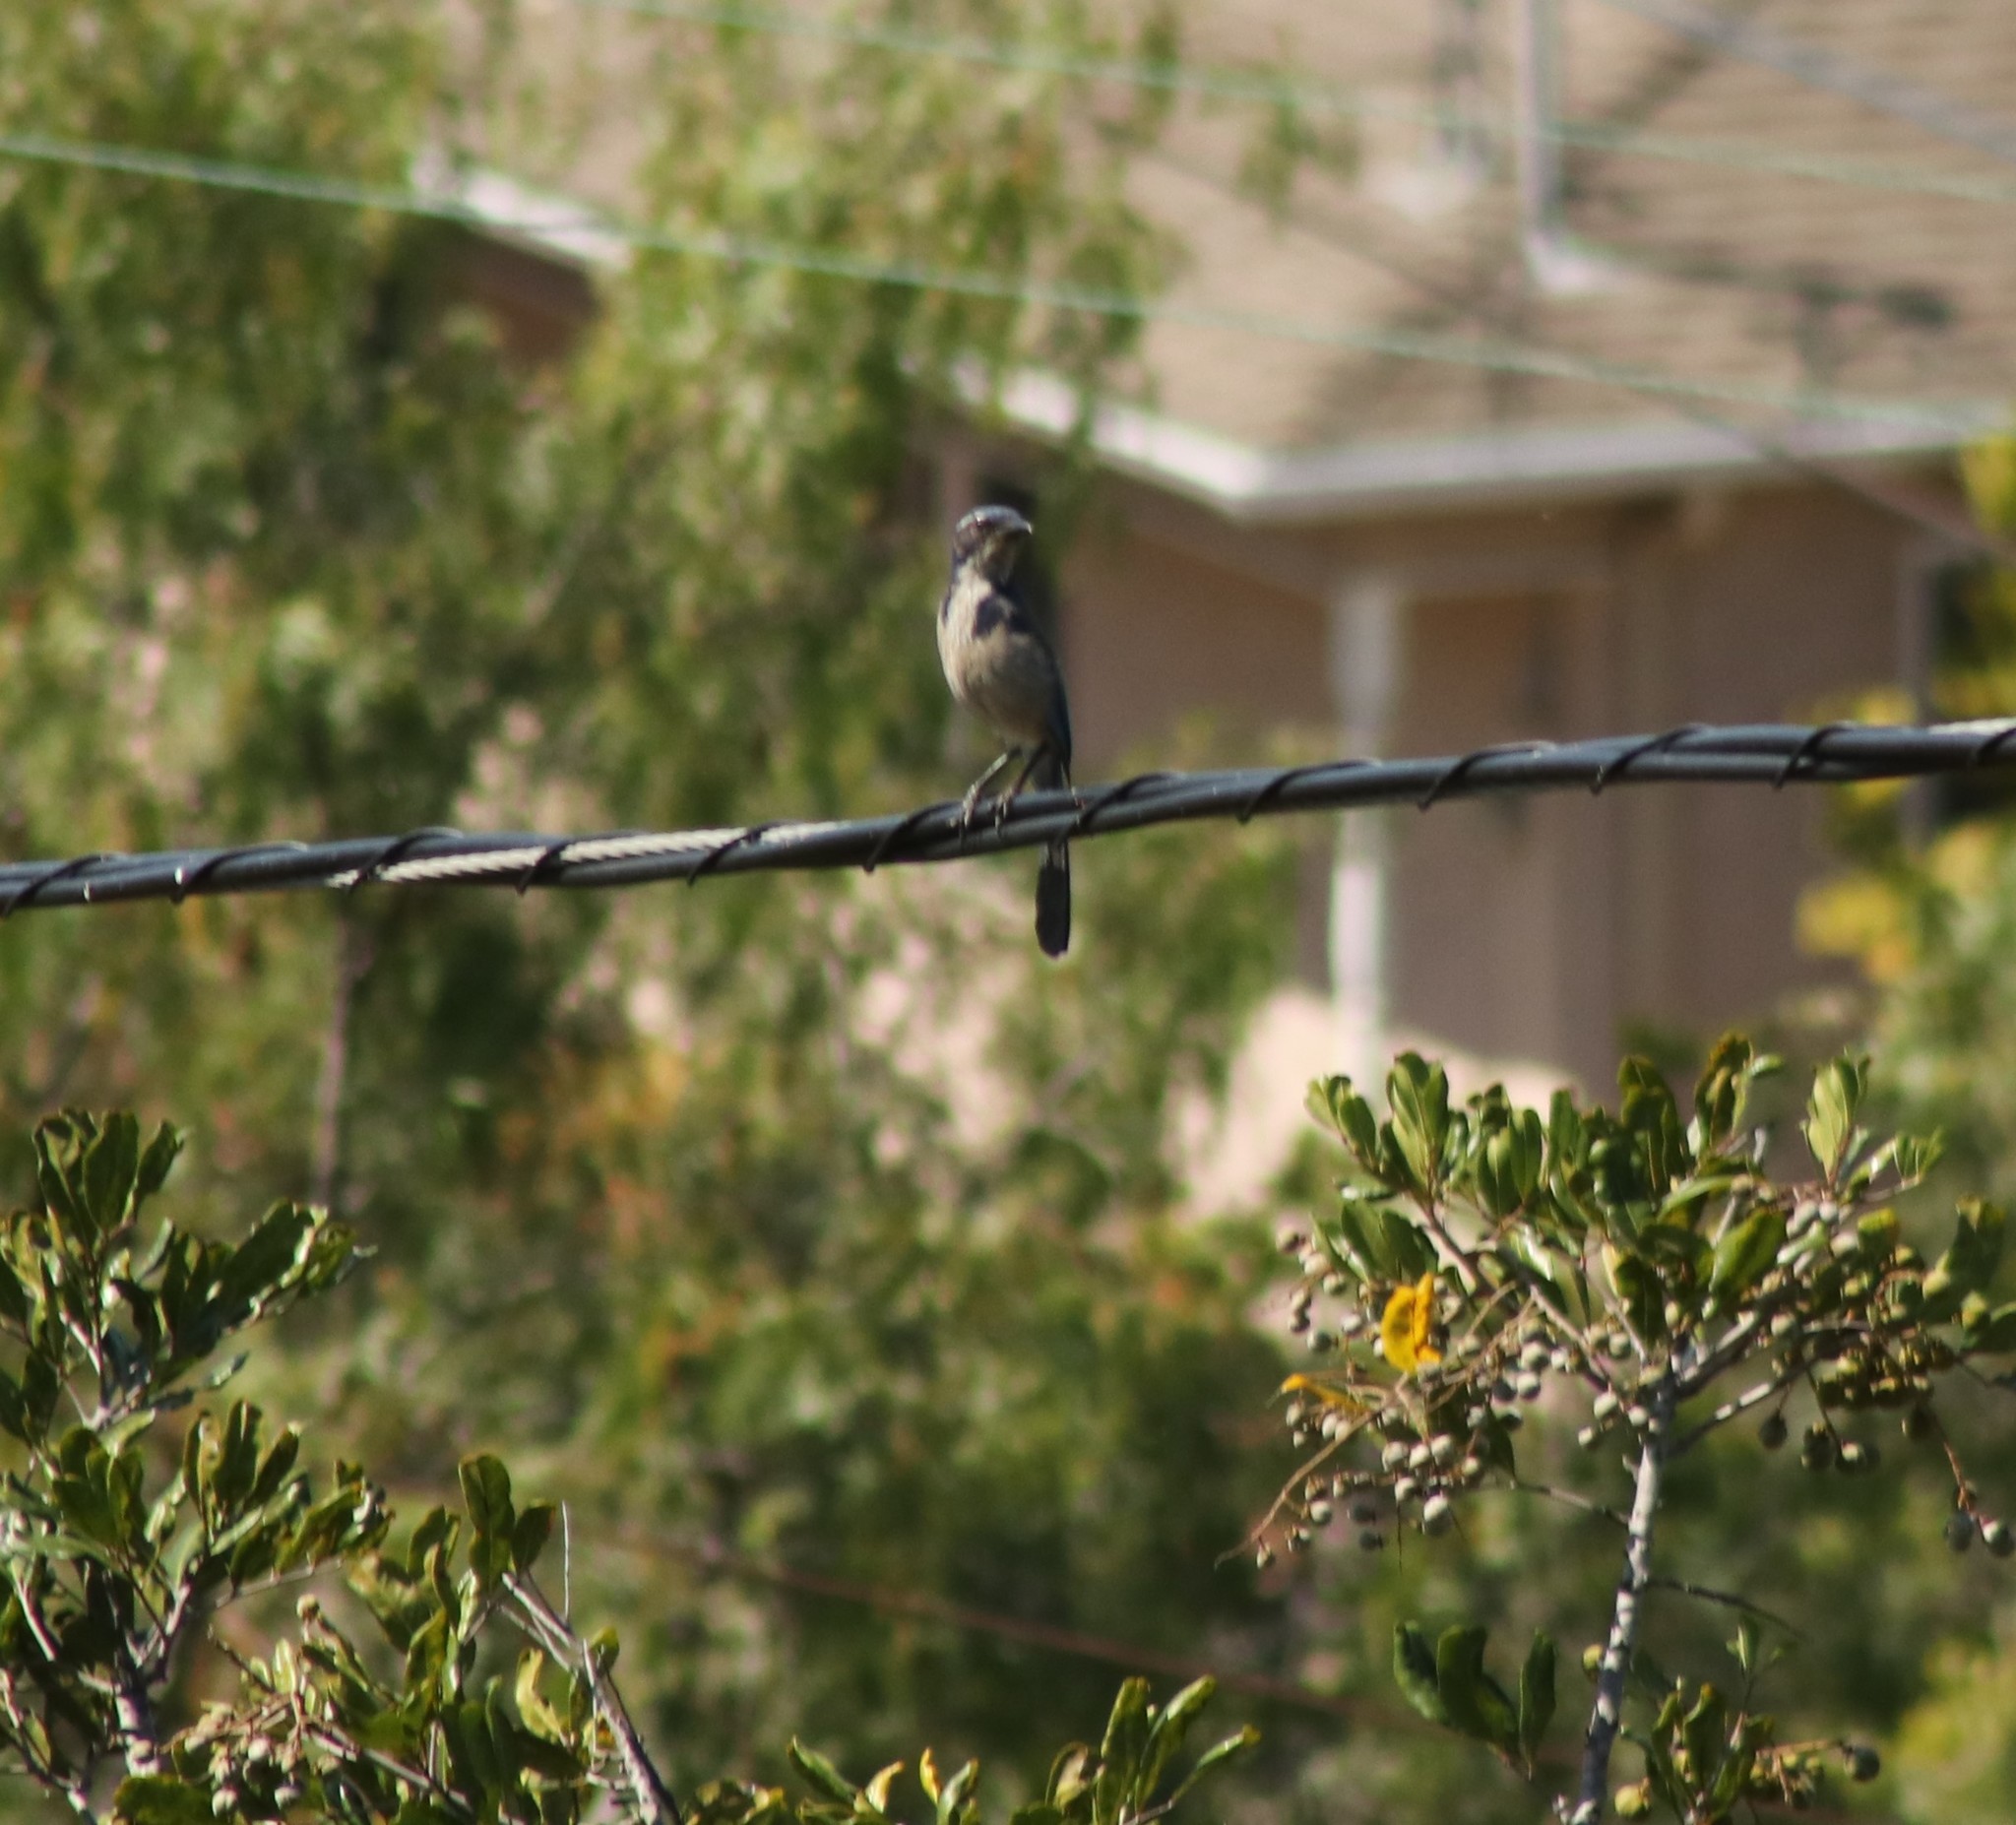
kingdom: Animalia
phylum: Chordata
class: Aves
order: Passeriformes
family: Corvidae
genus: Aphelocoma
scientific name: Aphelocoma californica
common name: California scrub-jay
